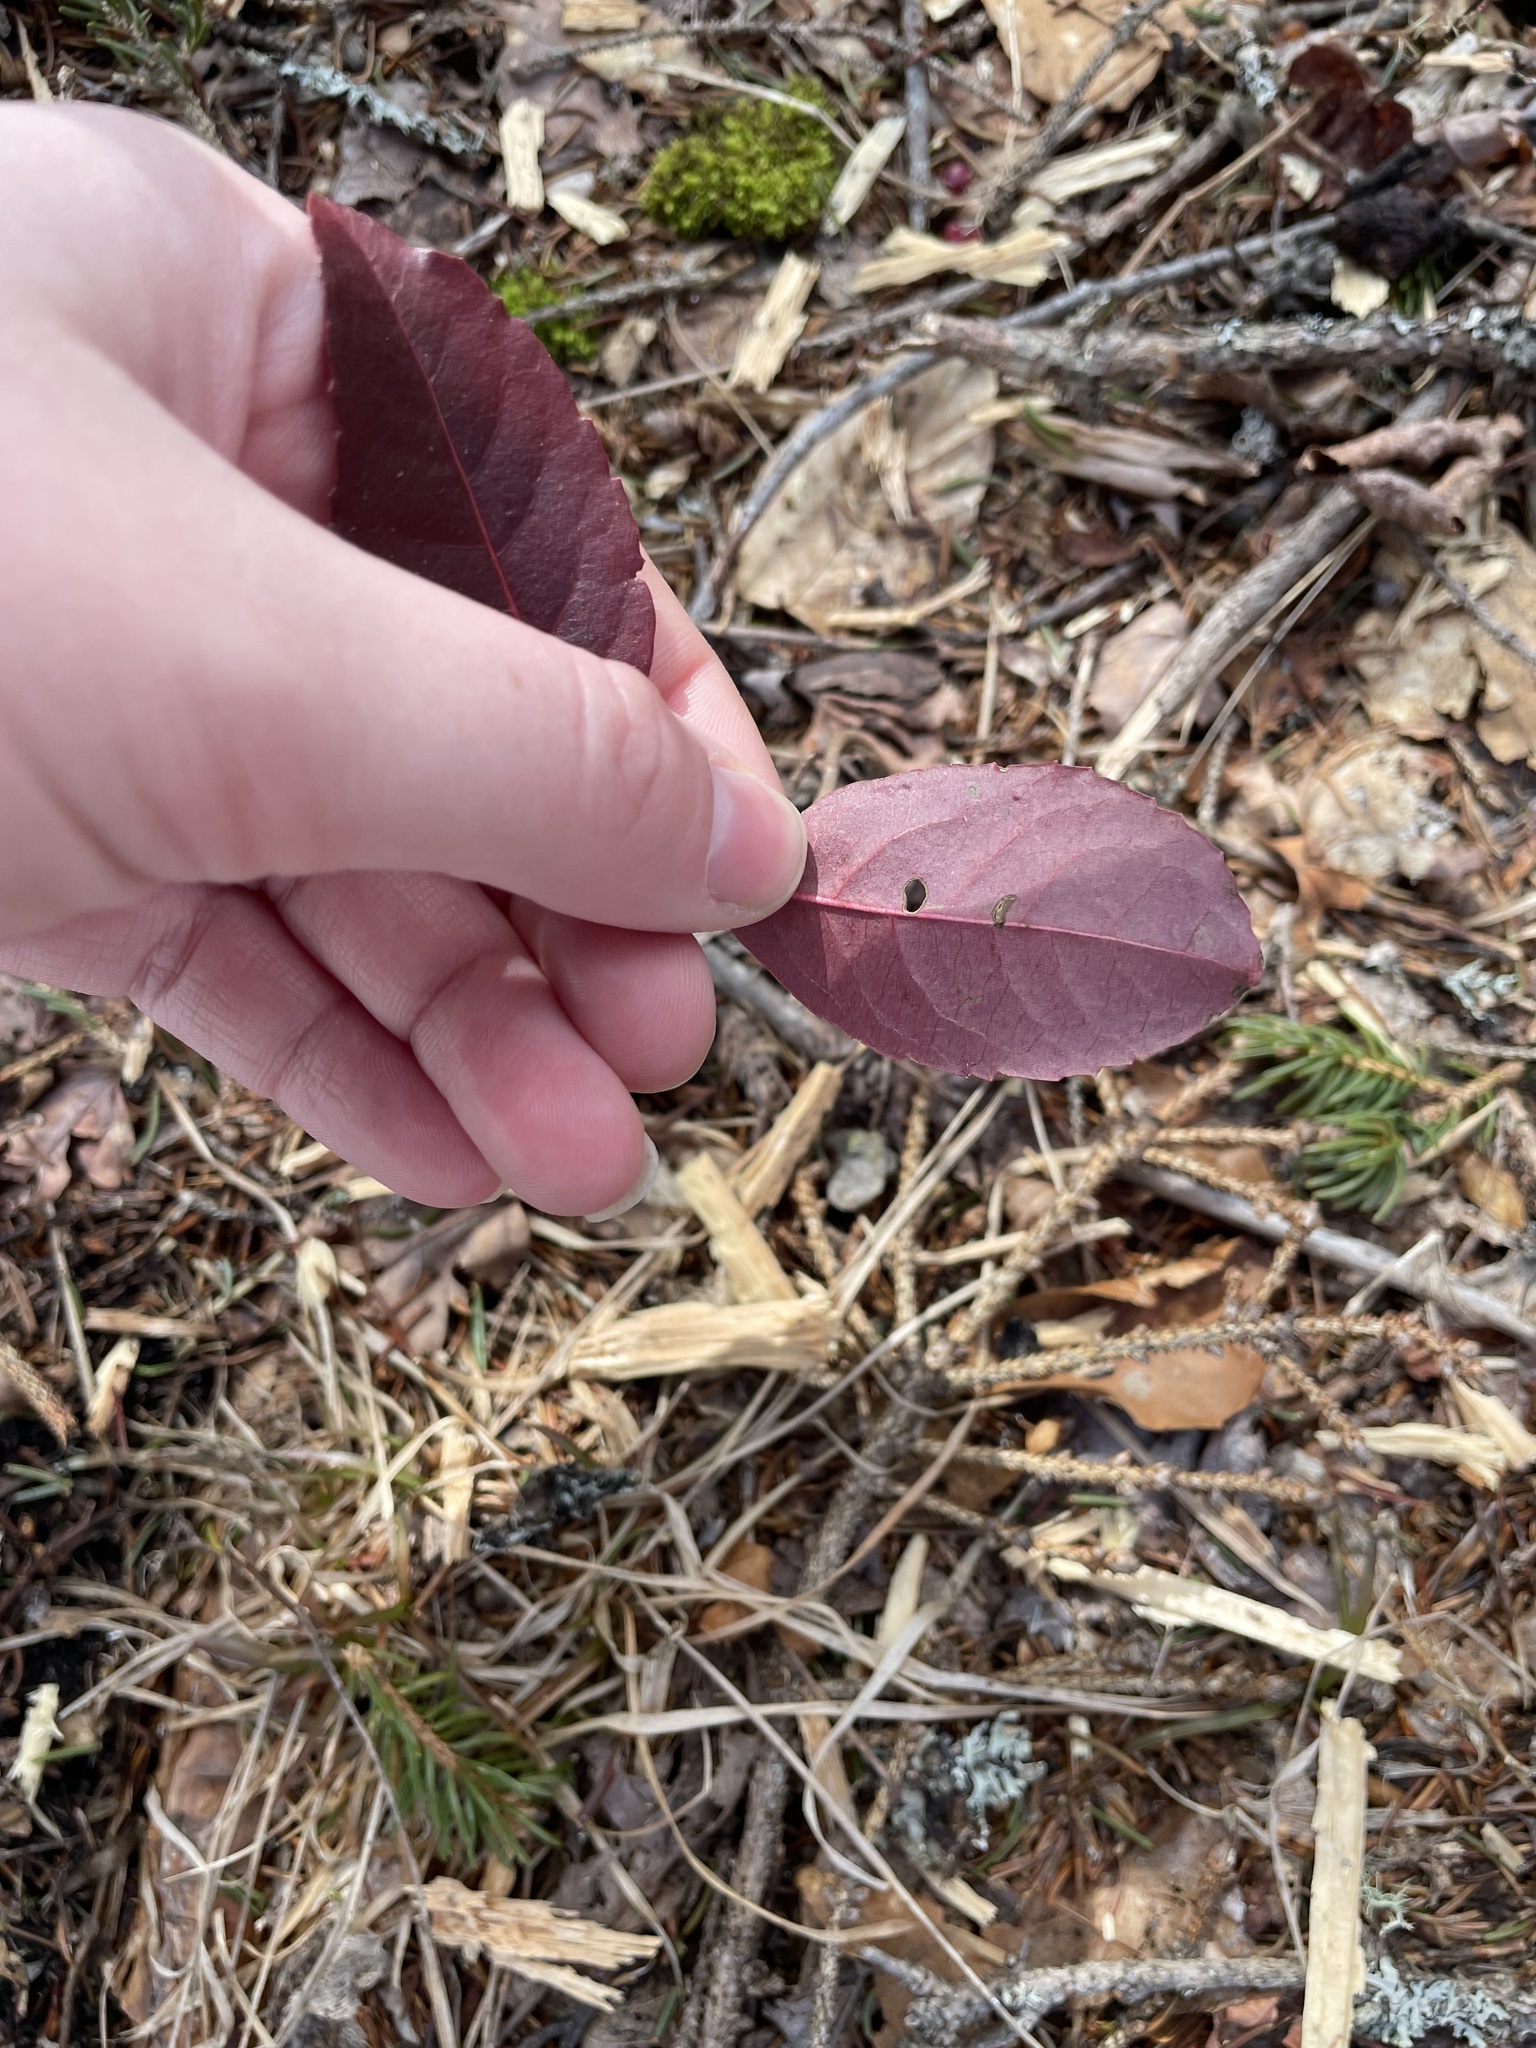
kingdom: Plantae
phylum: Tracheophyta
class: Magnoliopsida
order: Dipsacales
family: Viburnaceae
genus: Viburnum
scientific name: Viburnum cassinoides
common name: Swamp haw
